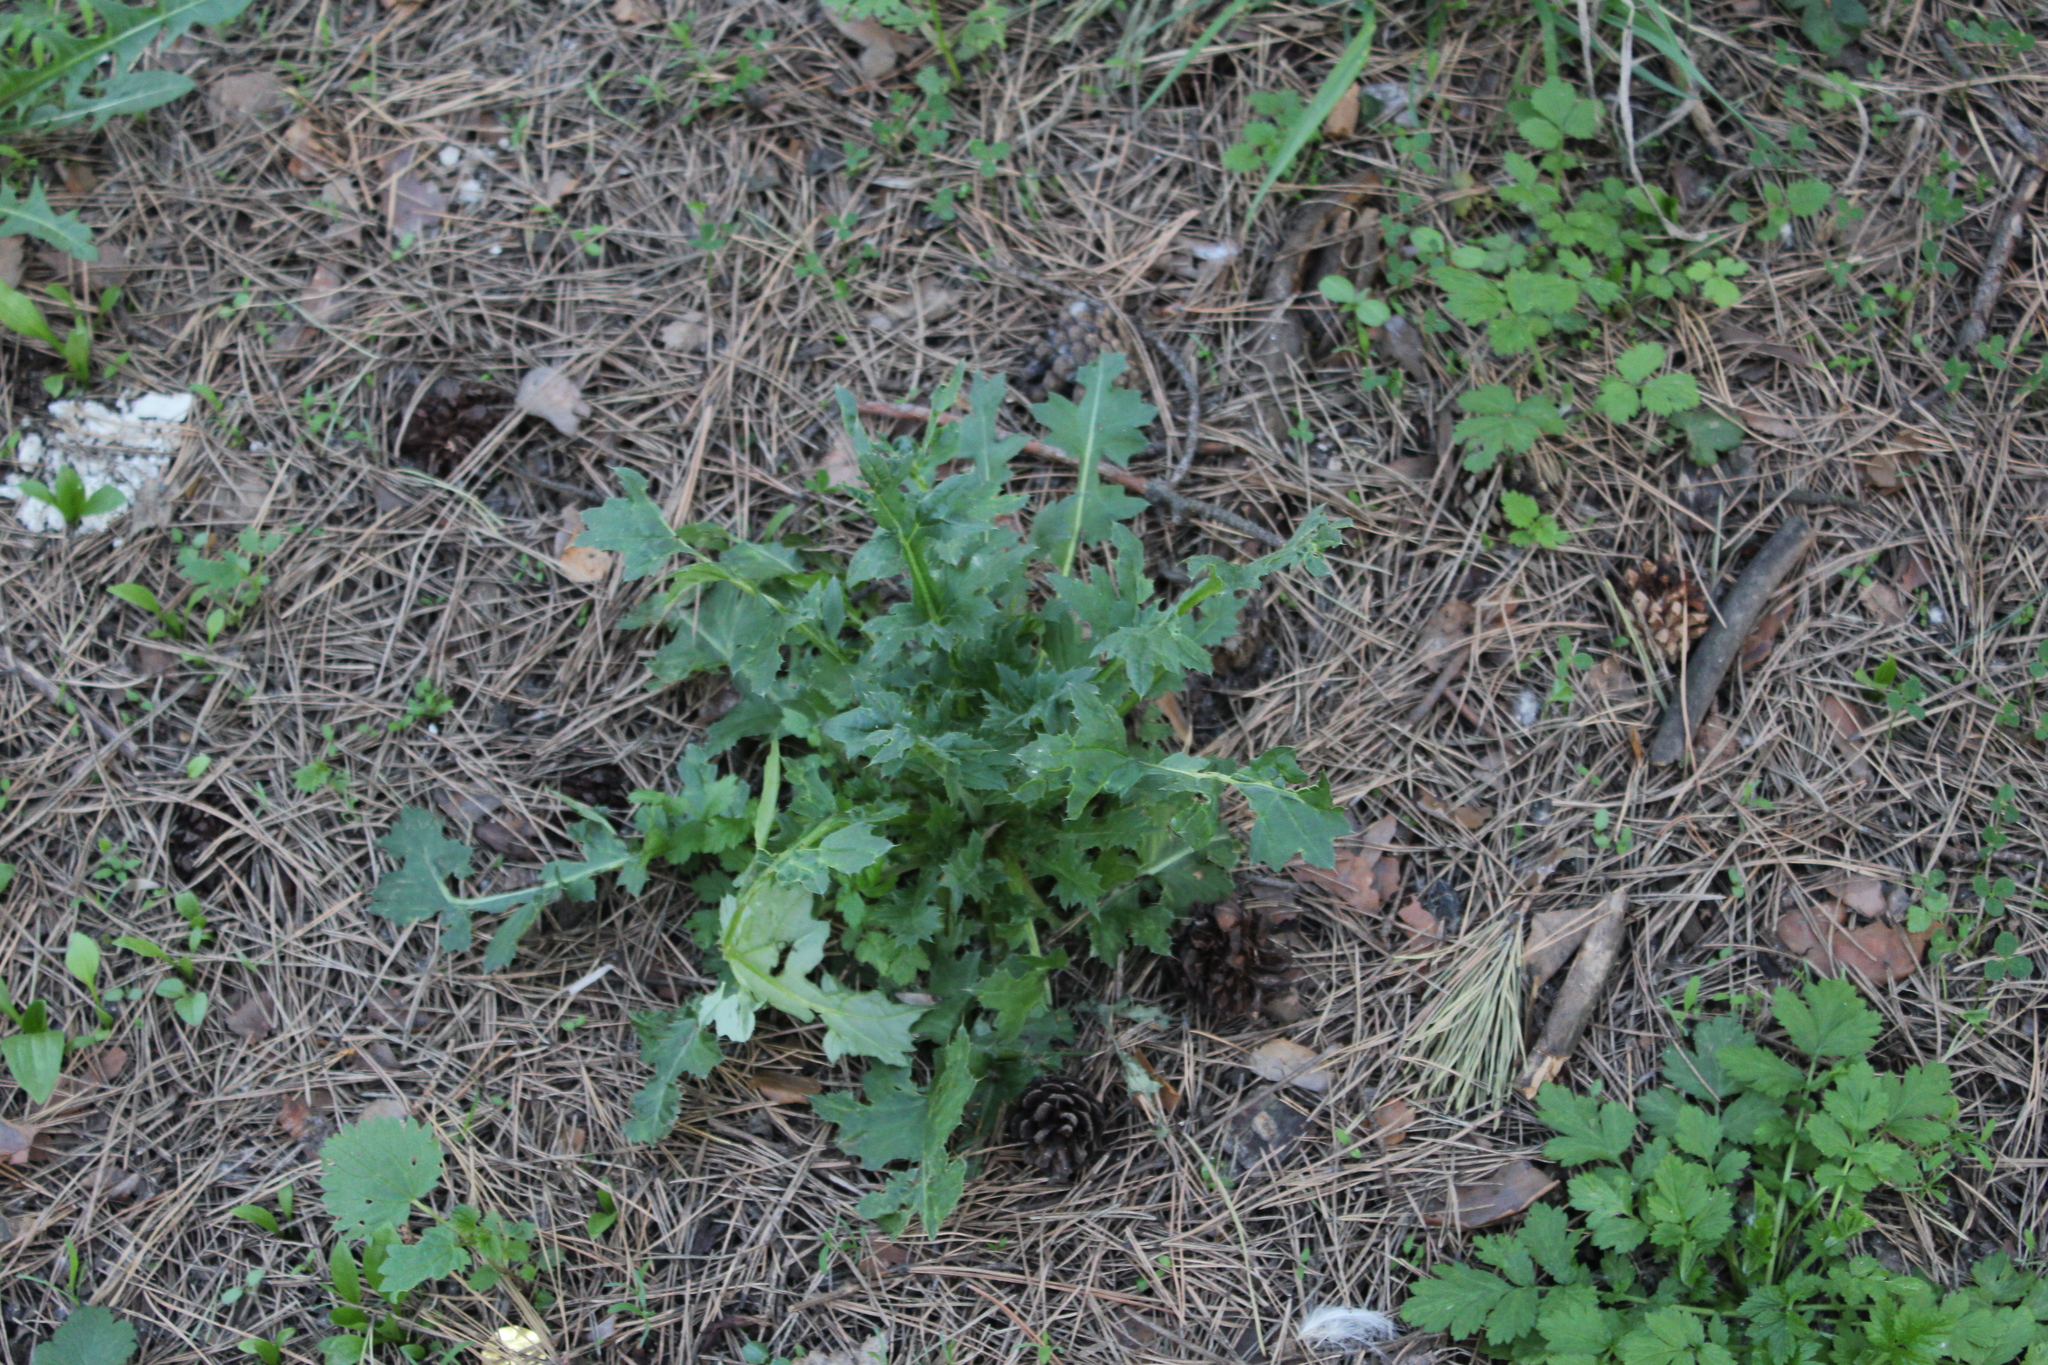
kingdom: Plantae
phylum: Tracheophyta
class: Magnoliopsida
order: Asterales
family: Asteraceae
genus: Carduus
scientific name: Carduus crispus
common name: Welted thistle
